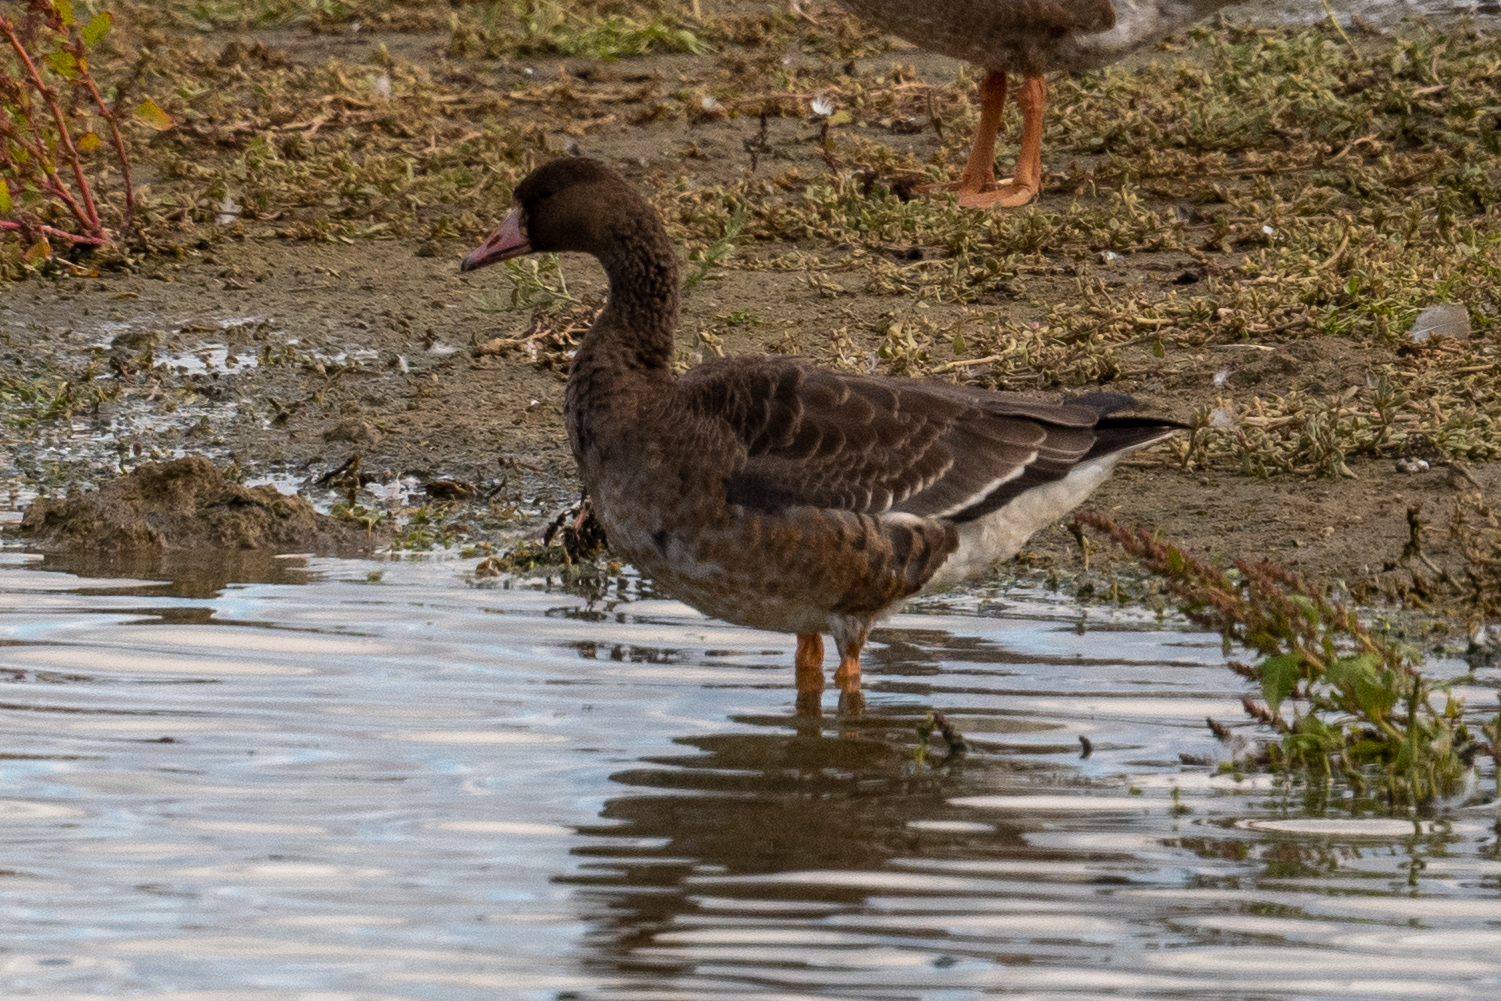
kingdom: Animalia
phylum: Chordata
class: Aves
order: Anseriformes
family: Anatidae
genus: Anser
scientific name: Anser albifrons
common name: Greater white-fronted goose
